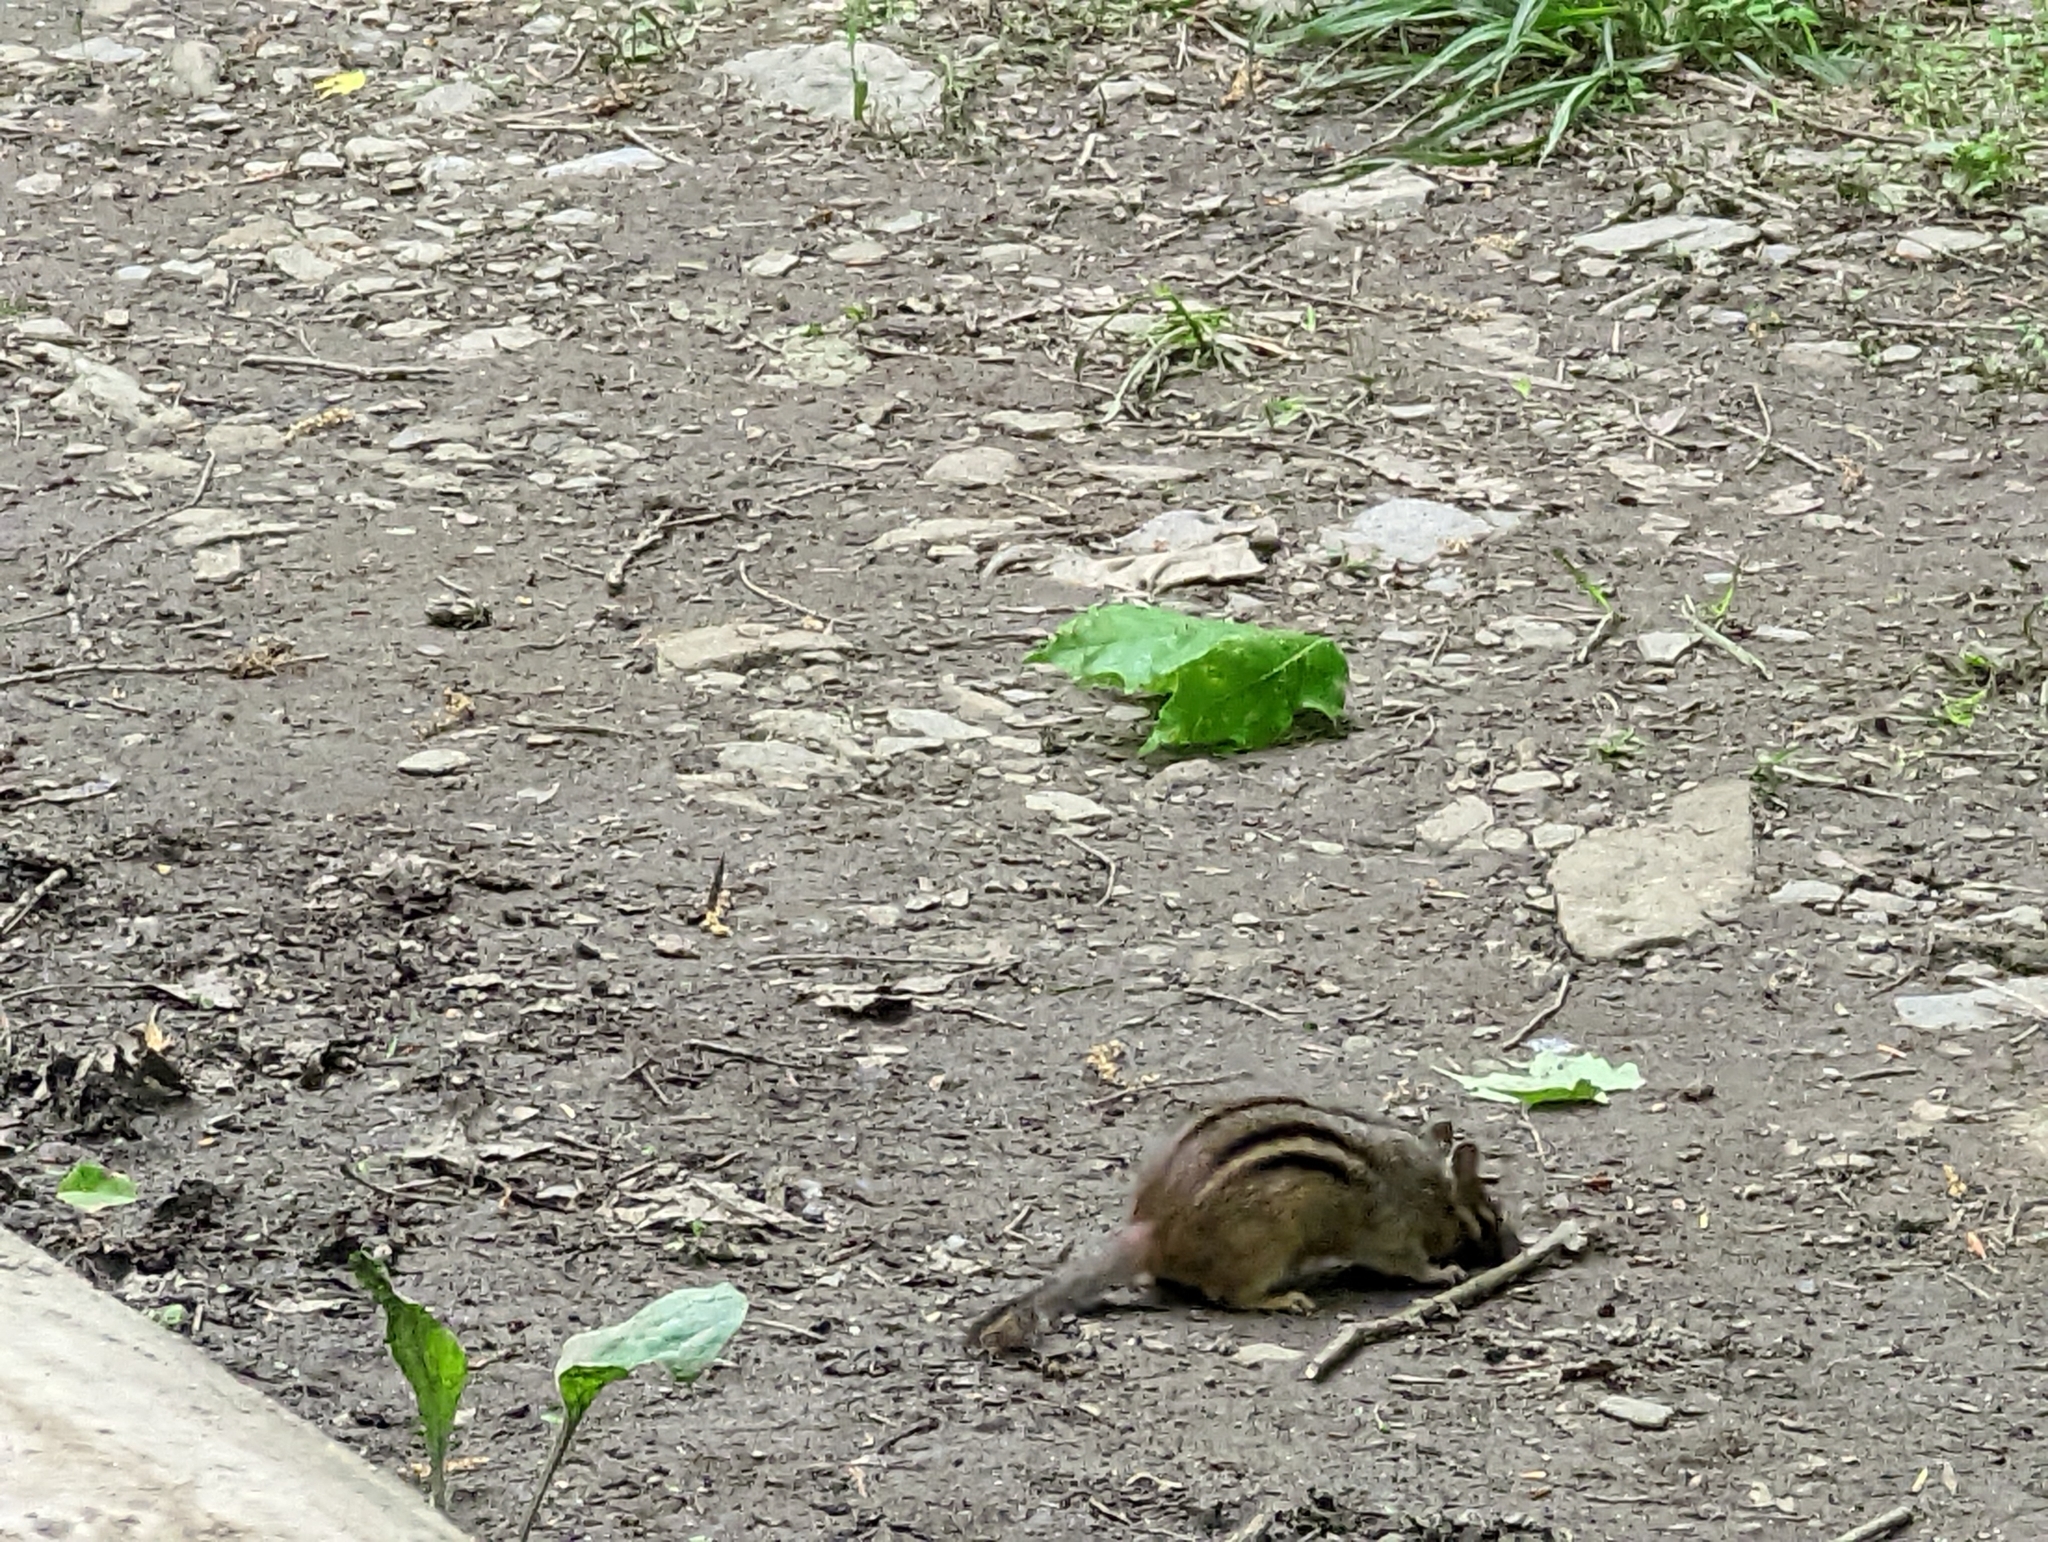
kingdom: Animalia
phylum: Chordata
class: Mammalia
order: Rodentia
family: Sciuridae
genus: Tamias
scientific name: Tamias striatus
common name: Eastern chipmunk
